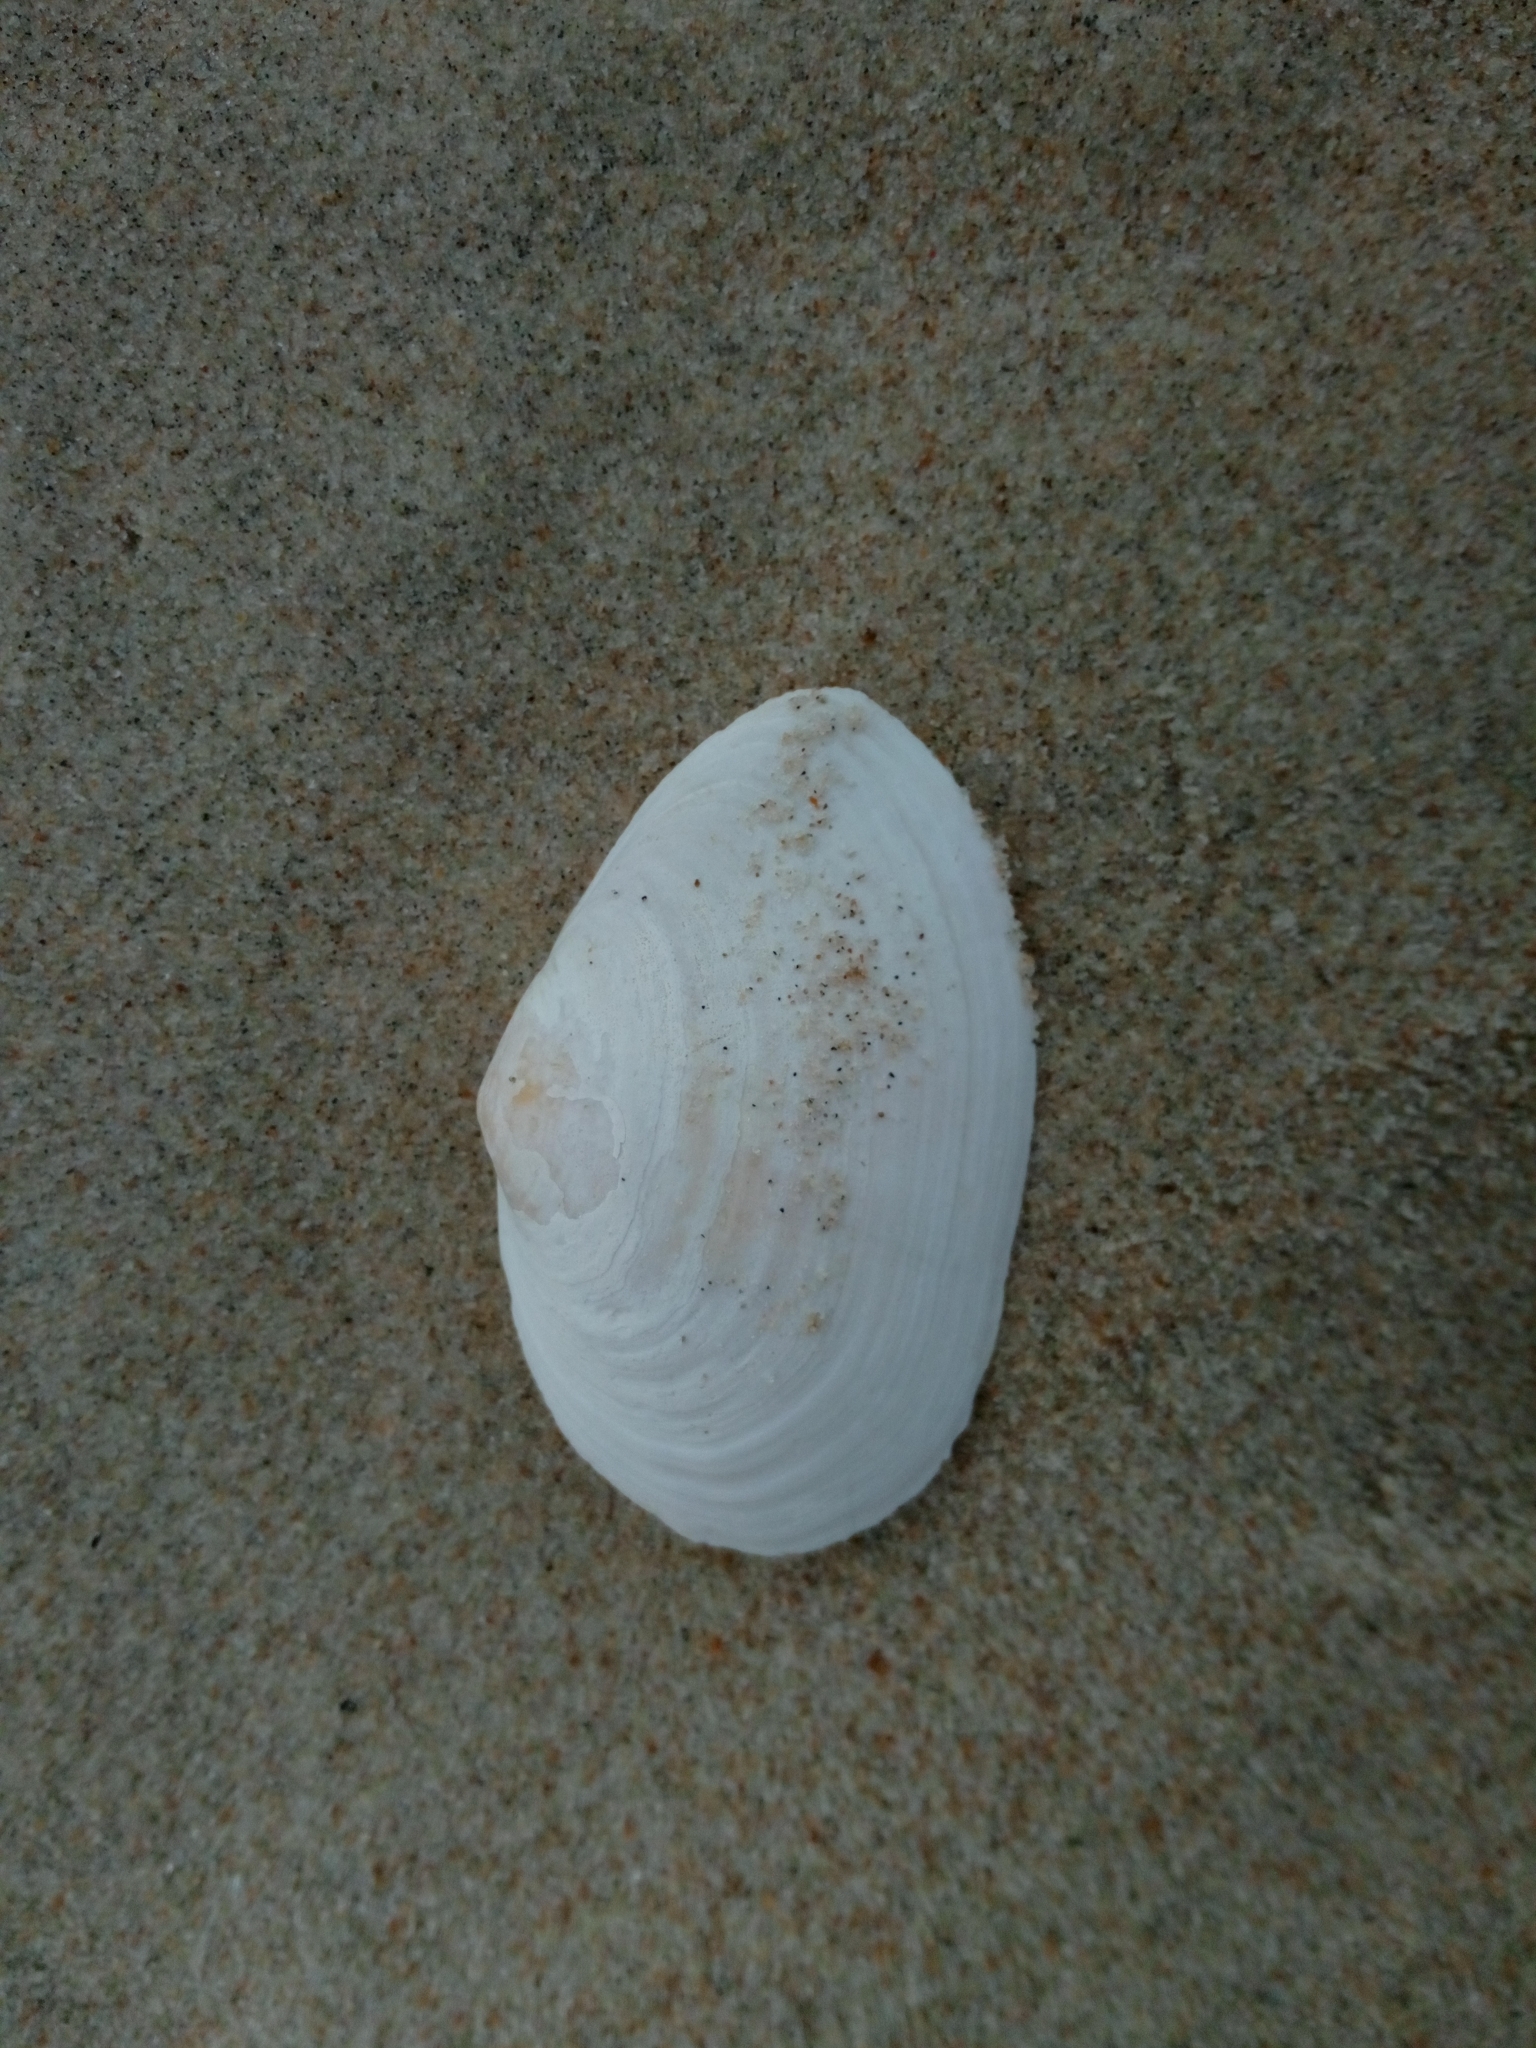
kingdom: Animalia
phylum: Mollusca
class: Bivalvia
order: Myida
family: Myidae
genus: Mya
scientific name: Mya arenaria
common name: Soft-shelled clam
